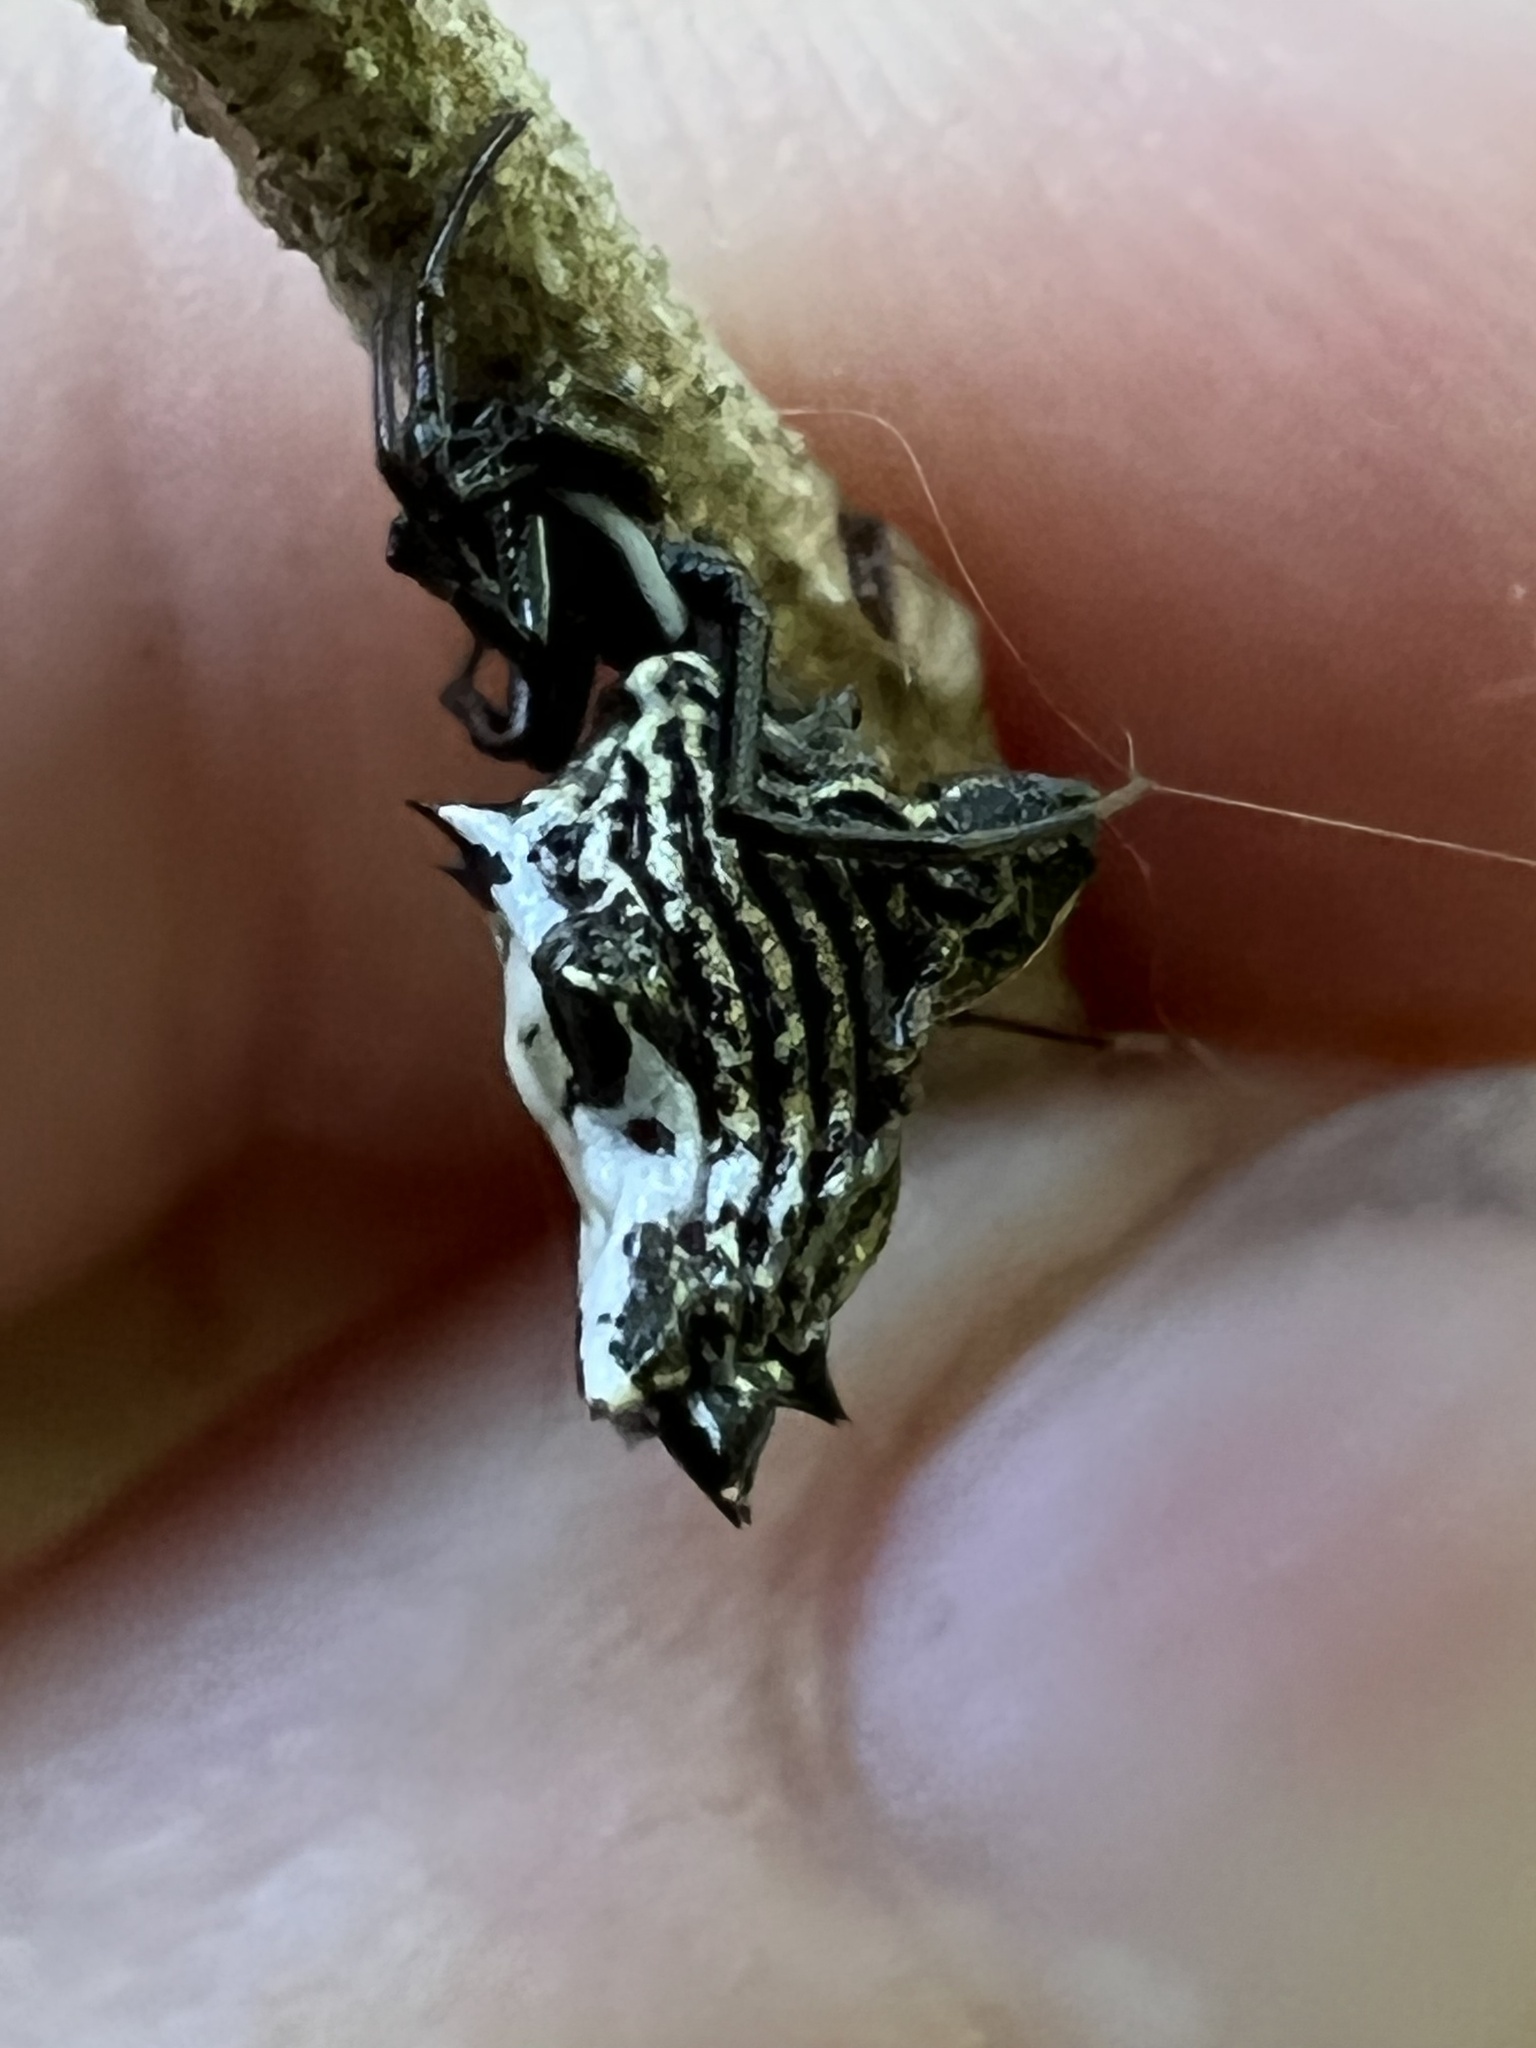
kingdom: Animalia
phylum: Arthropoda
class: Arachnida
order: Araneae
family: Araneidae
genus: Micrathena
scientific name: Micrathena gracilis
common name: Orb weavers
